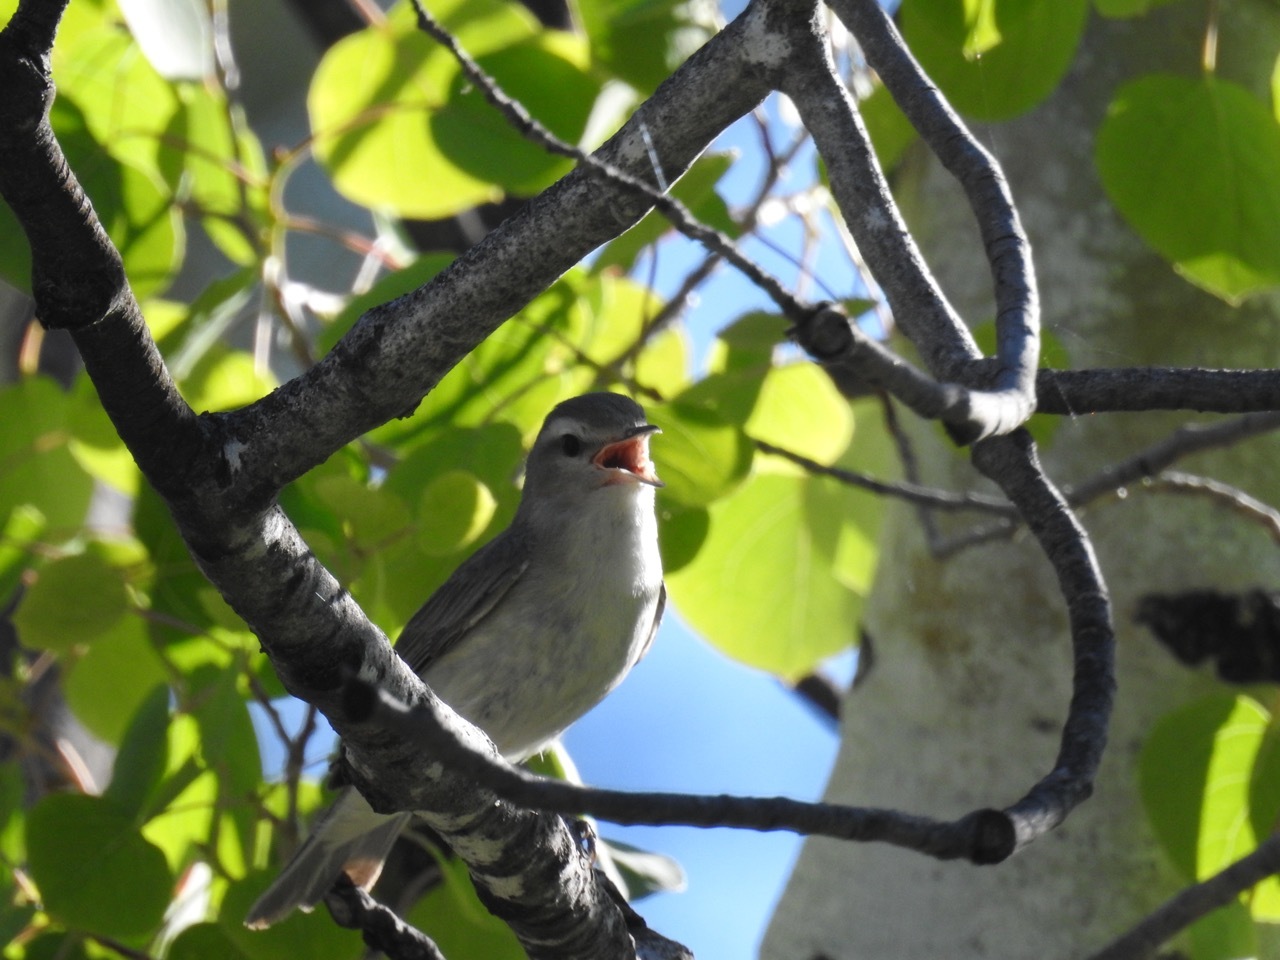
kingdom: Animalia
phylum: Chordata
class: Aves
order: Passeriformes
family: Vireonidae
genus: Vireo
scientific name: Vireo gilvus
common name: Warbling vireo
